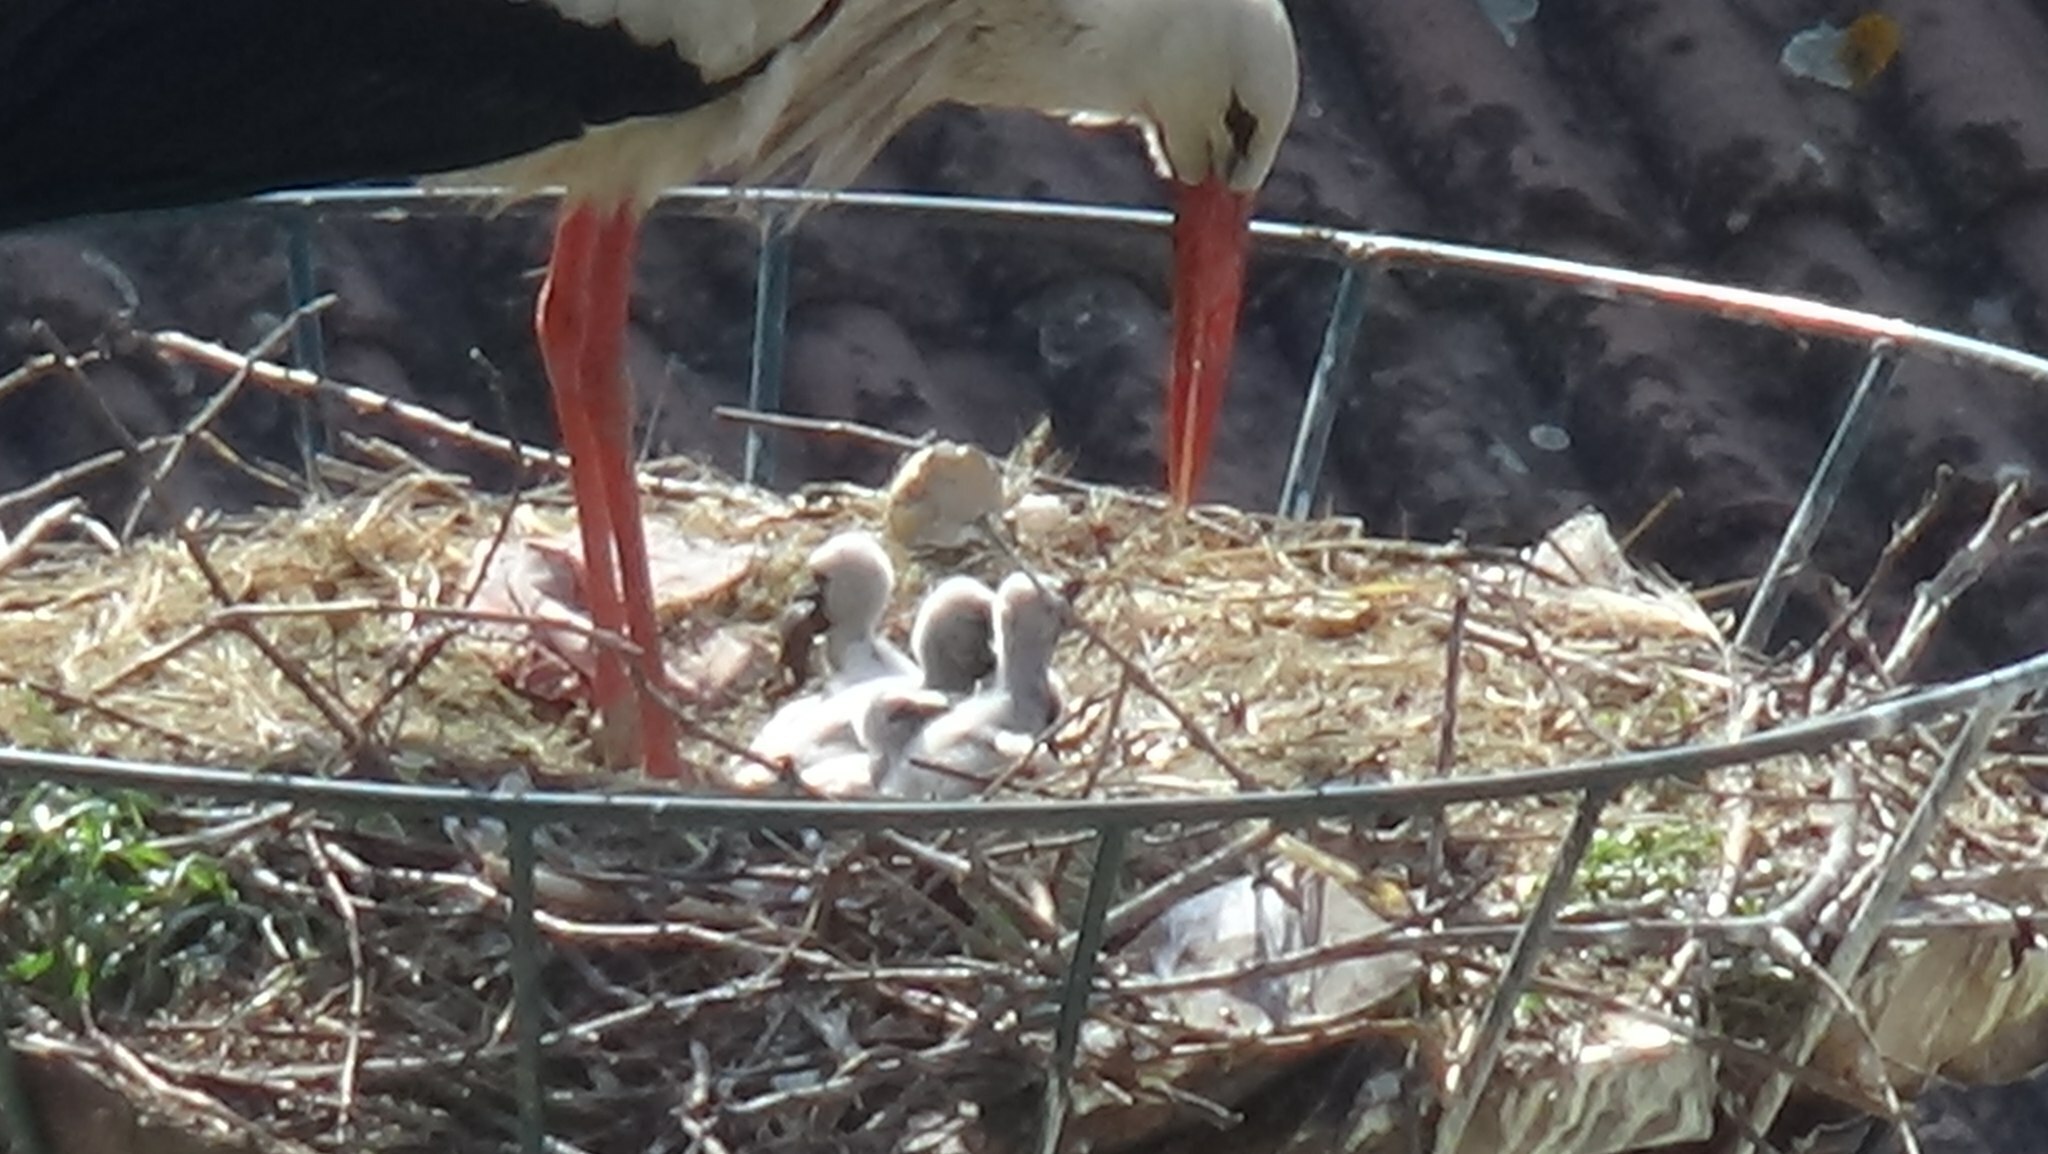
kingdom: Animalia
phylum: Chordata
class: Aves
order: Ciconiiformes
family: Ciconiidae
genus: Ciconia
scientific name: Ciconia ciconia
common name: White stork
